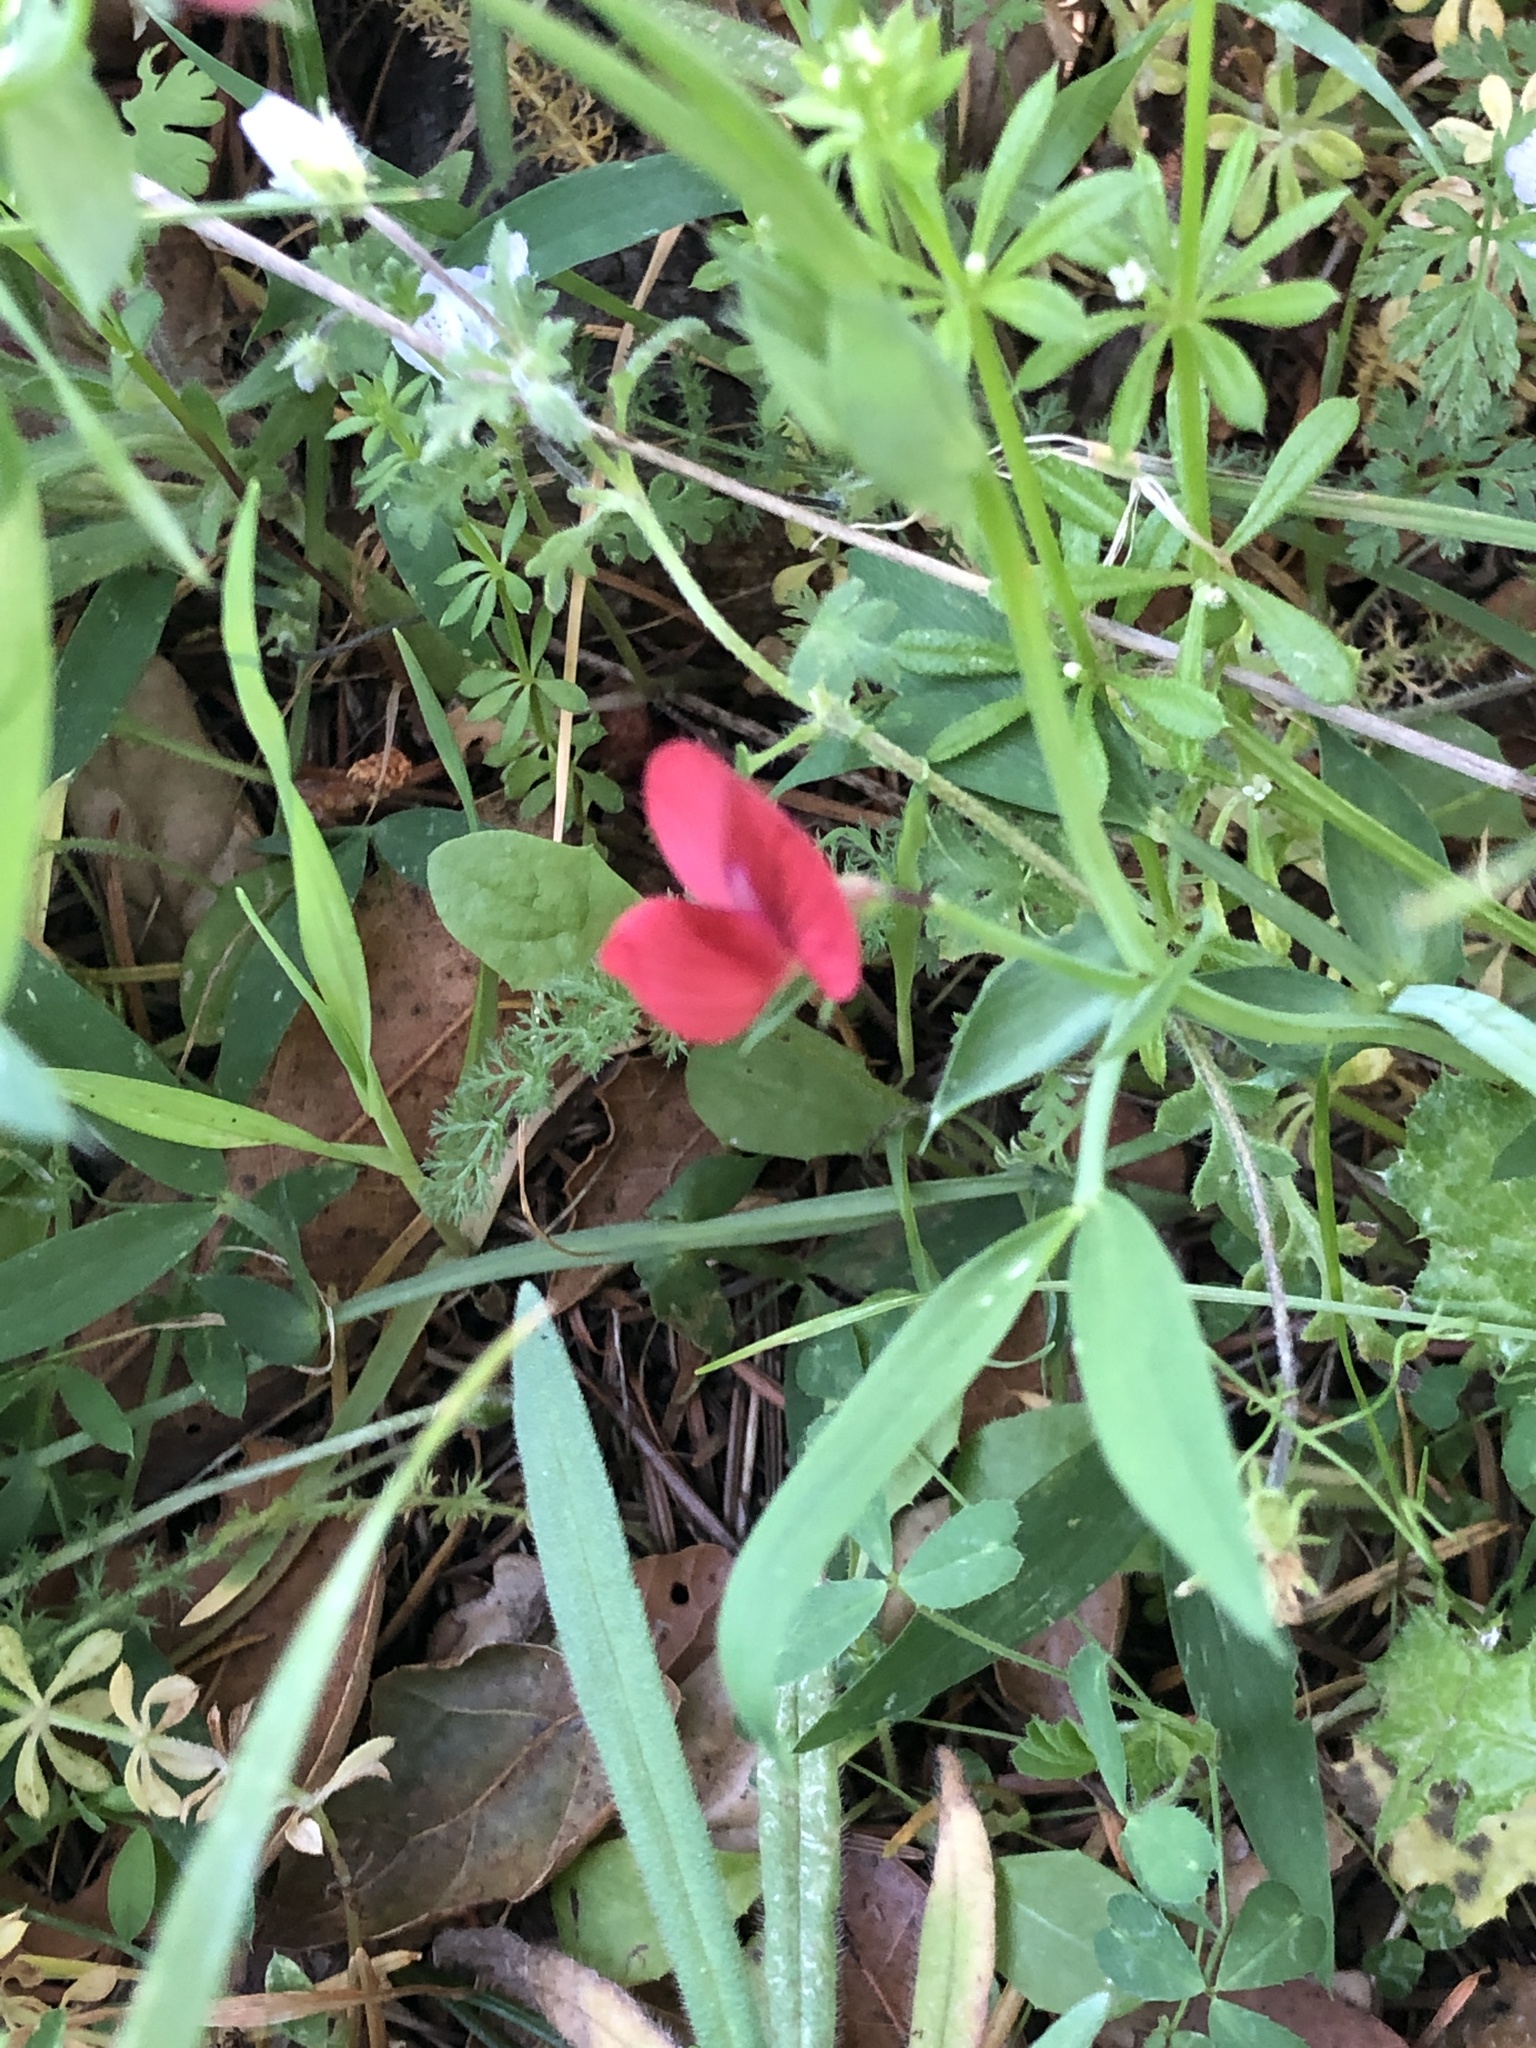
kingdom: Plantae
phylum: Tracheophyta
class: Magnoliopsida
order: Fabales
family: Fabaceae
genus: Lathyrus
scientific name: Lathyrus cicera
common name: Red vetchling
